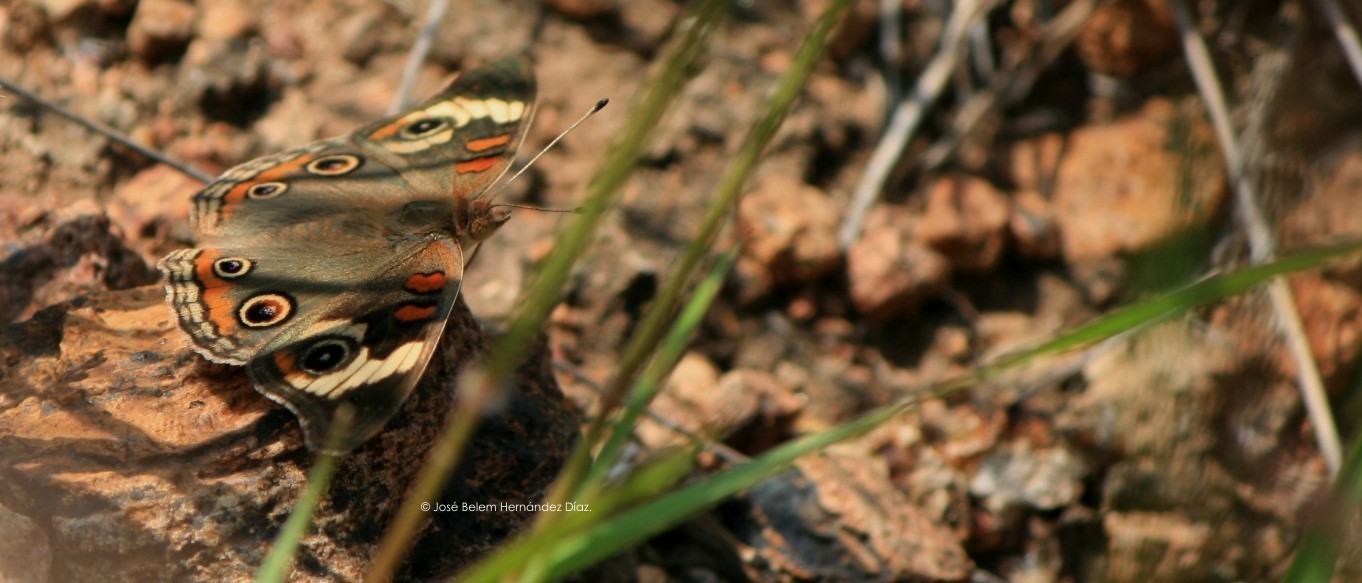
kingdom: Animalia
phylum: Arthropoda
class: Insecta
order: Lepidoptera
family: Nymphalidae
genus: Junonia
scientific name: Junonia coenia
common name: Common buckeye
